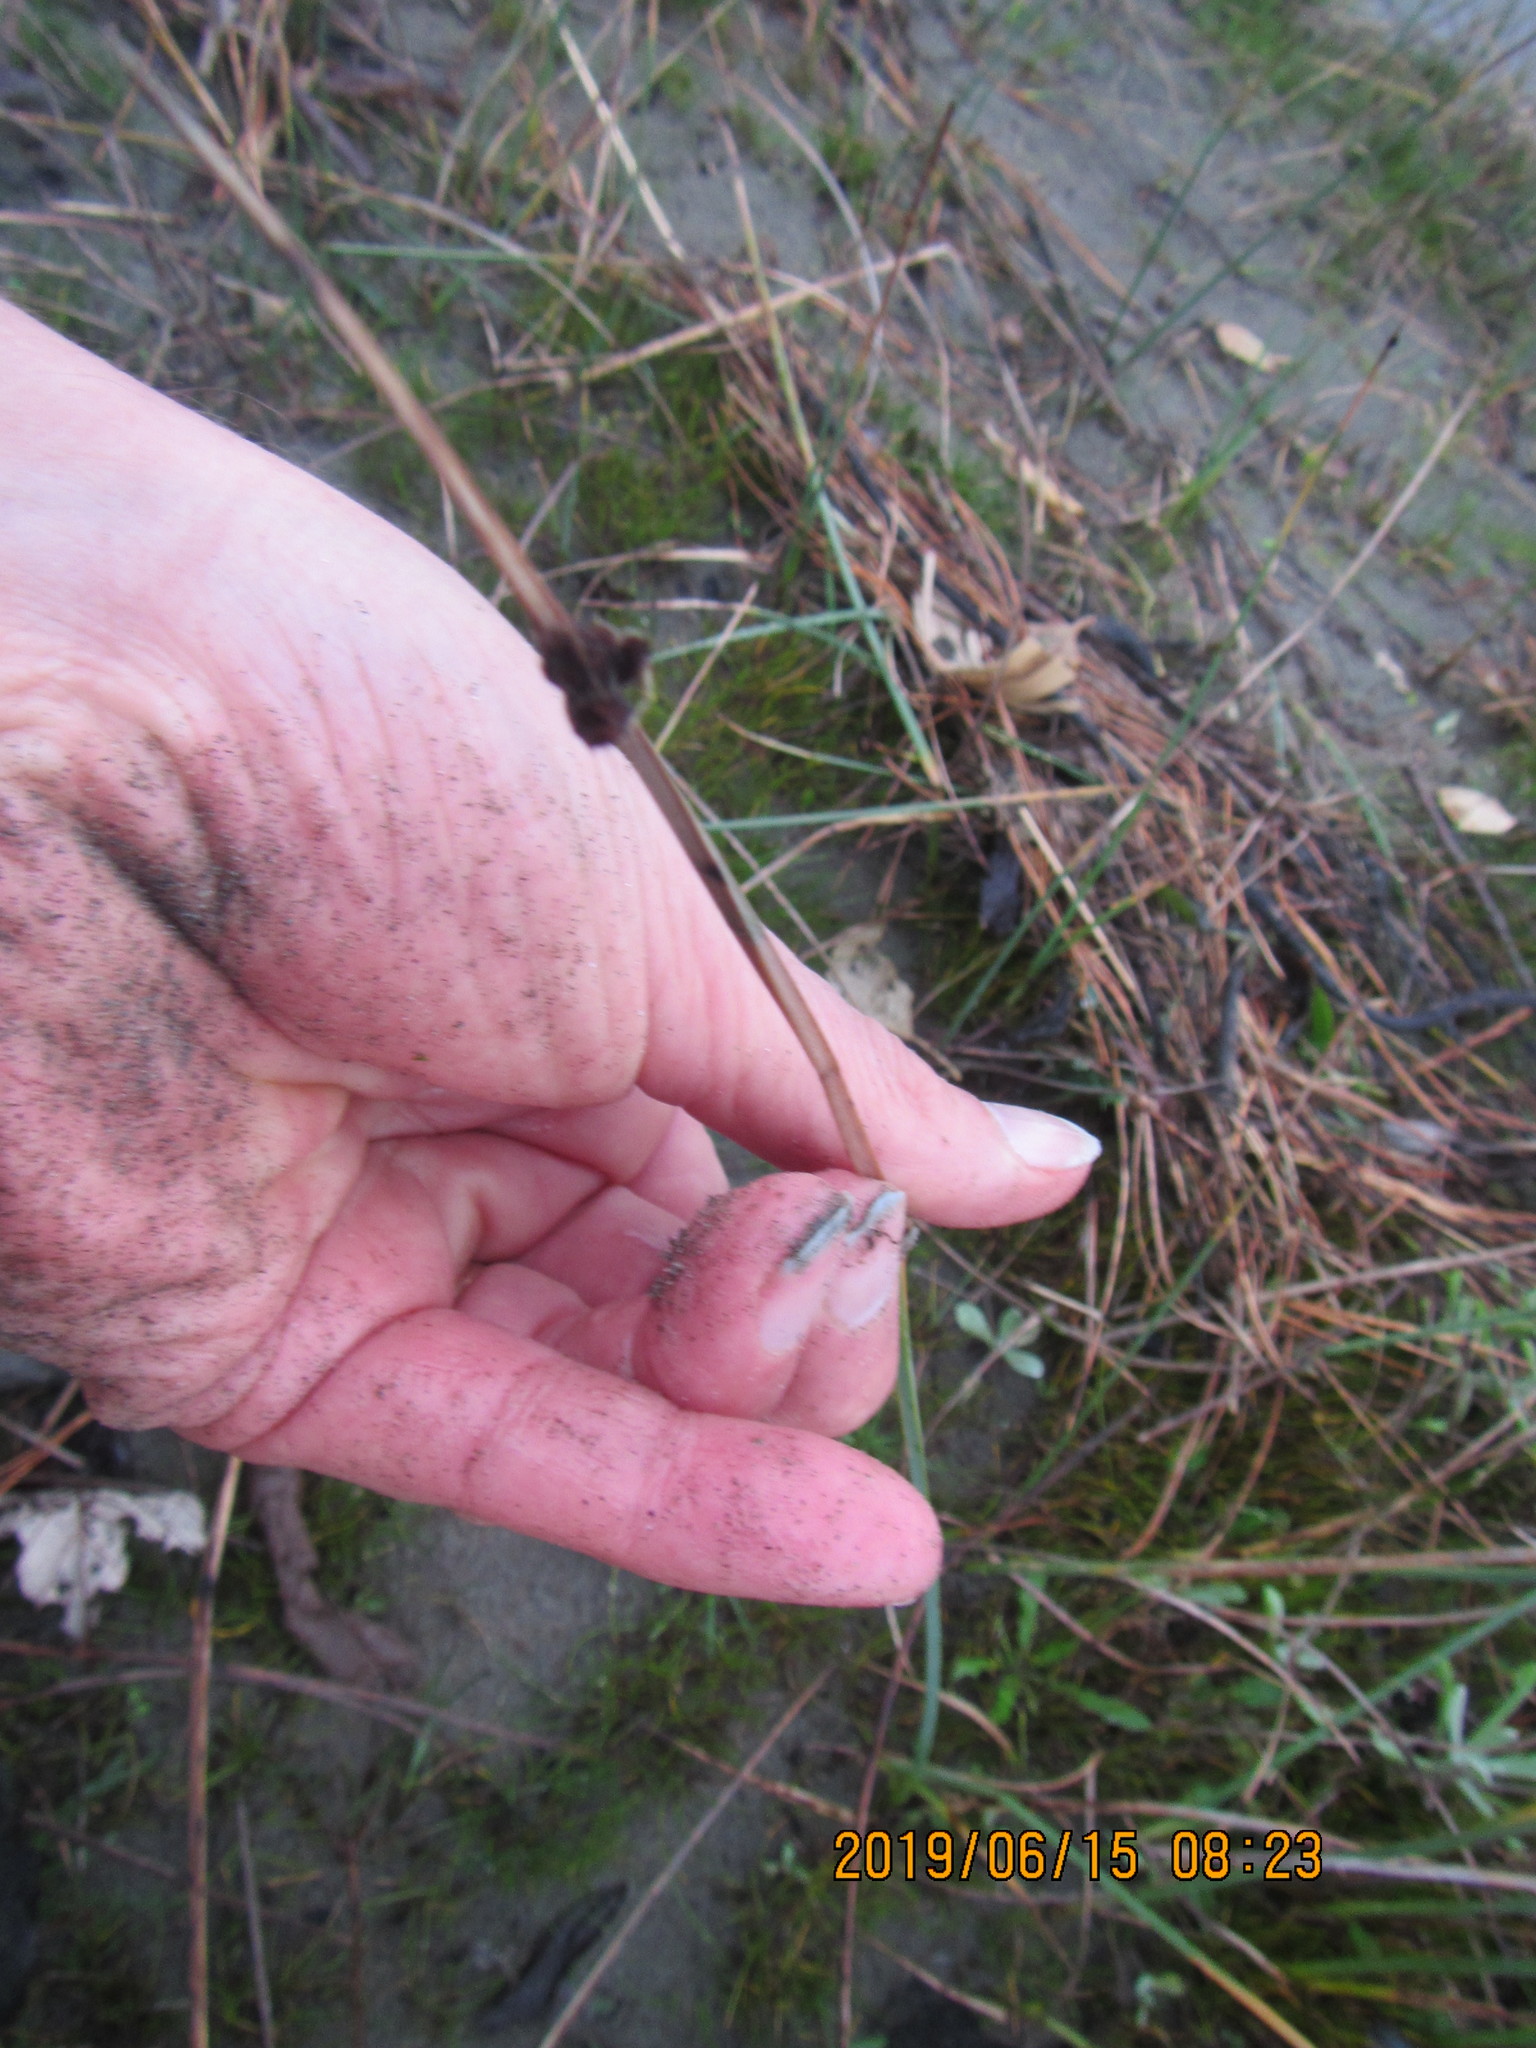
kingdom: Plantae
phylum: Tracheophyta
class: Liliopsida
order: Poales
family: Cyperaceae
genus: Schoenoplectus
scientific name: Schoenoplectus pungens
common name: Sharp club-rush
